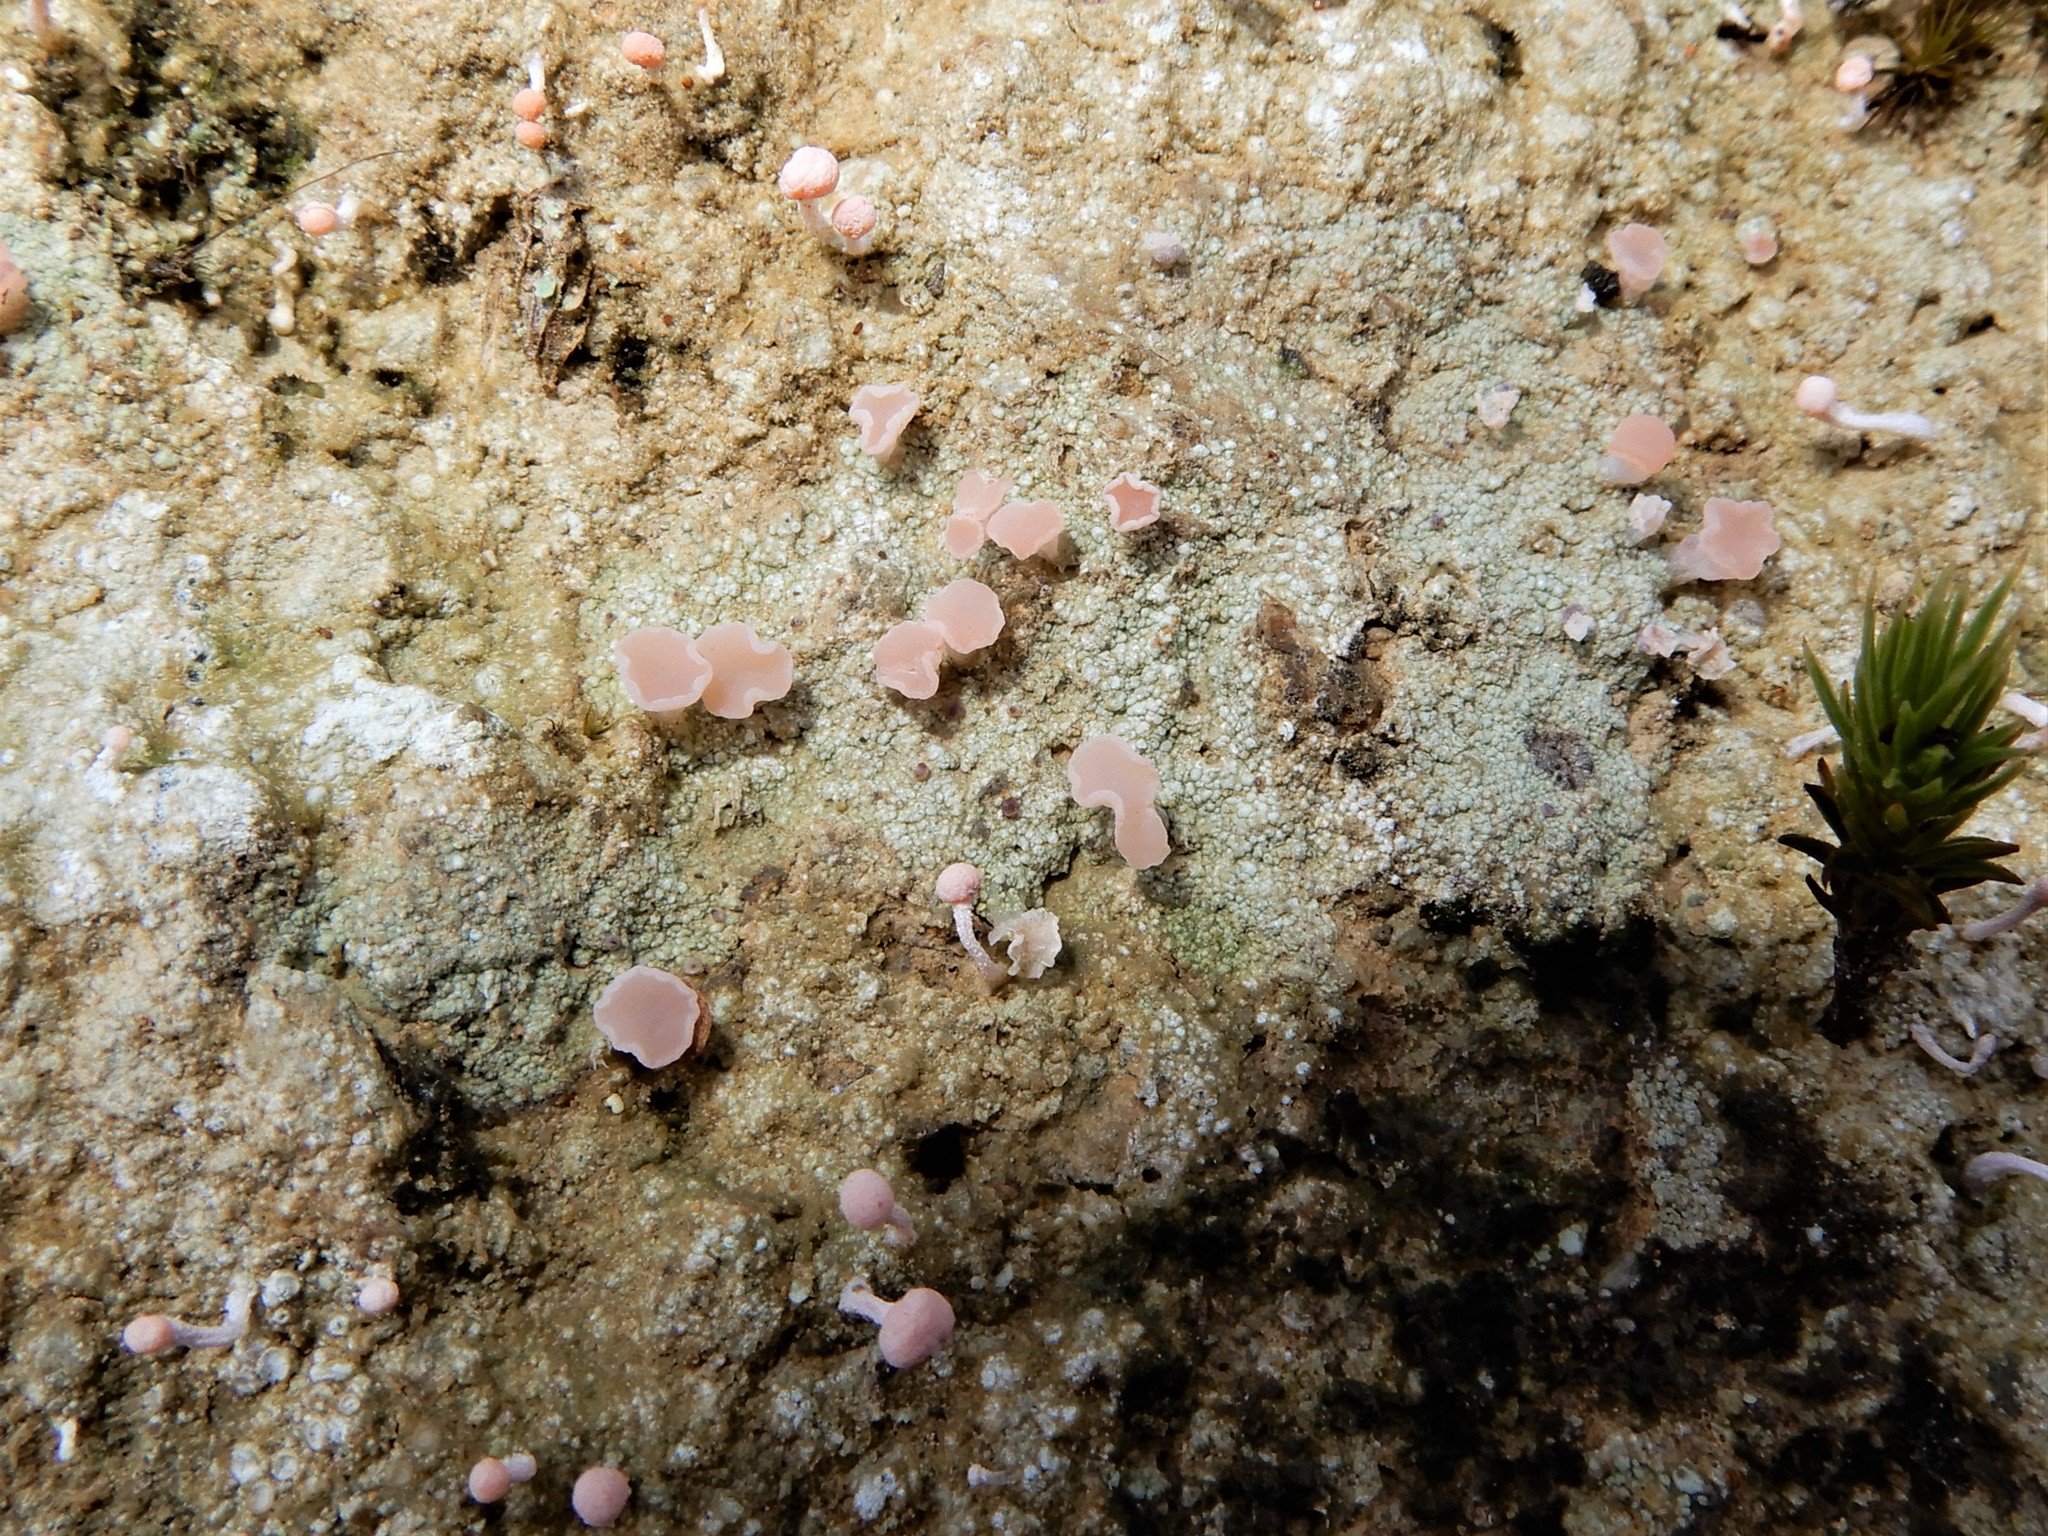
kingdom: Fungi
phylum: Ascomycota
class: Lecanoromycetes
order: Baeomycetales
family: Baeomycetaceae
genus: Baeomyces
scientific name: Baeomyces heteromorphus
